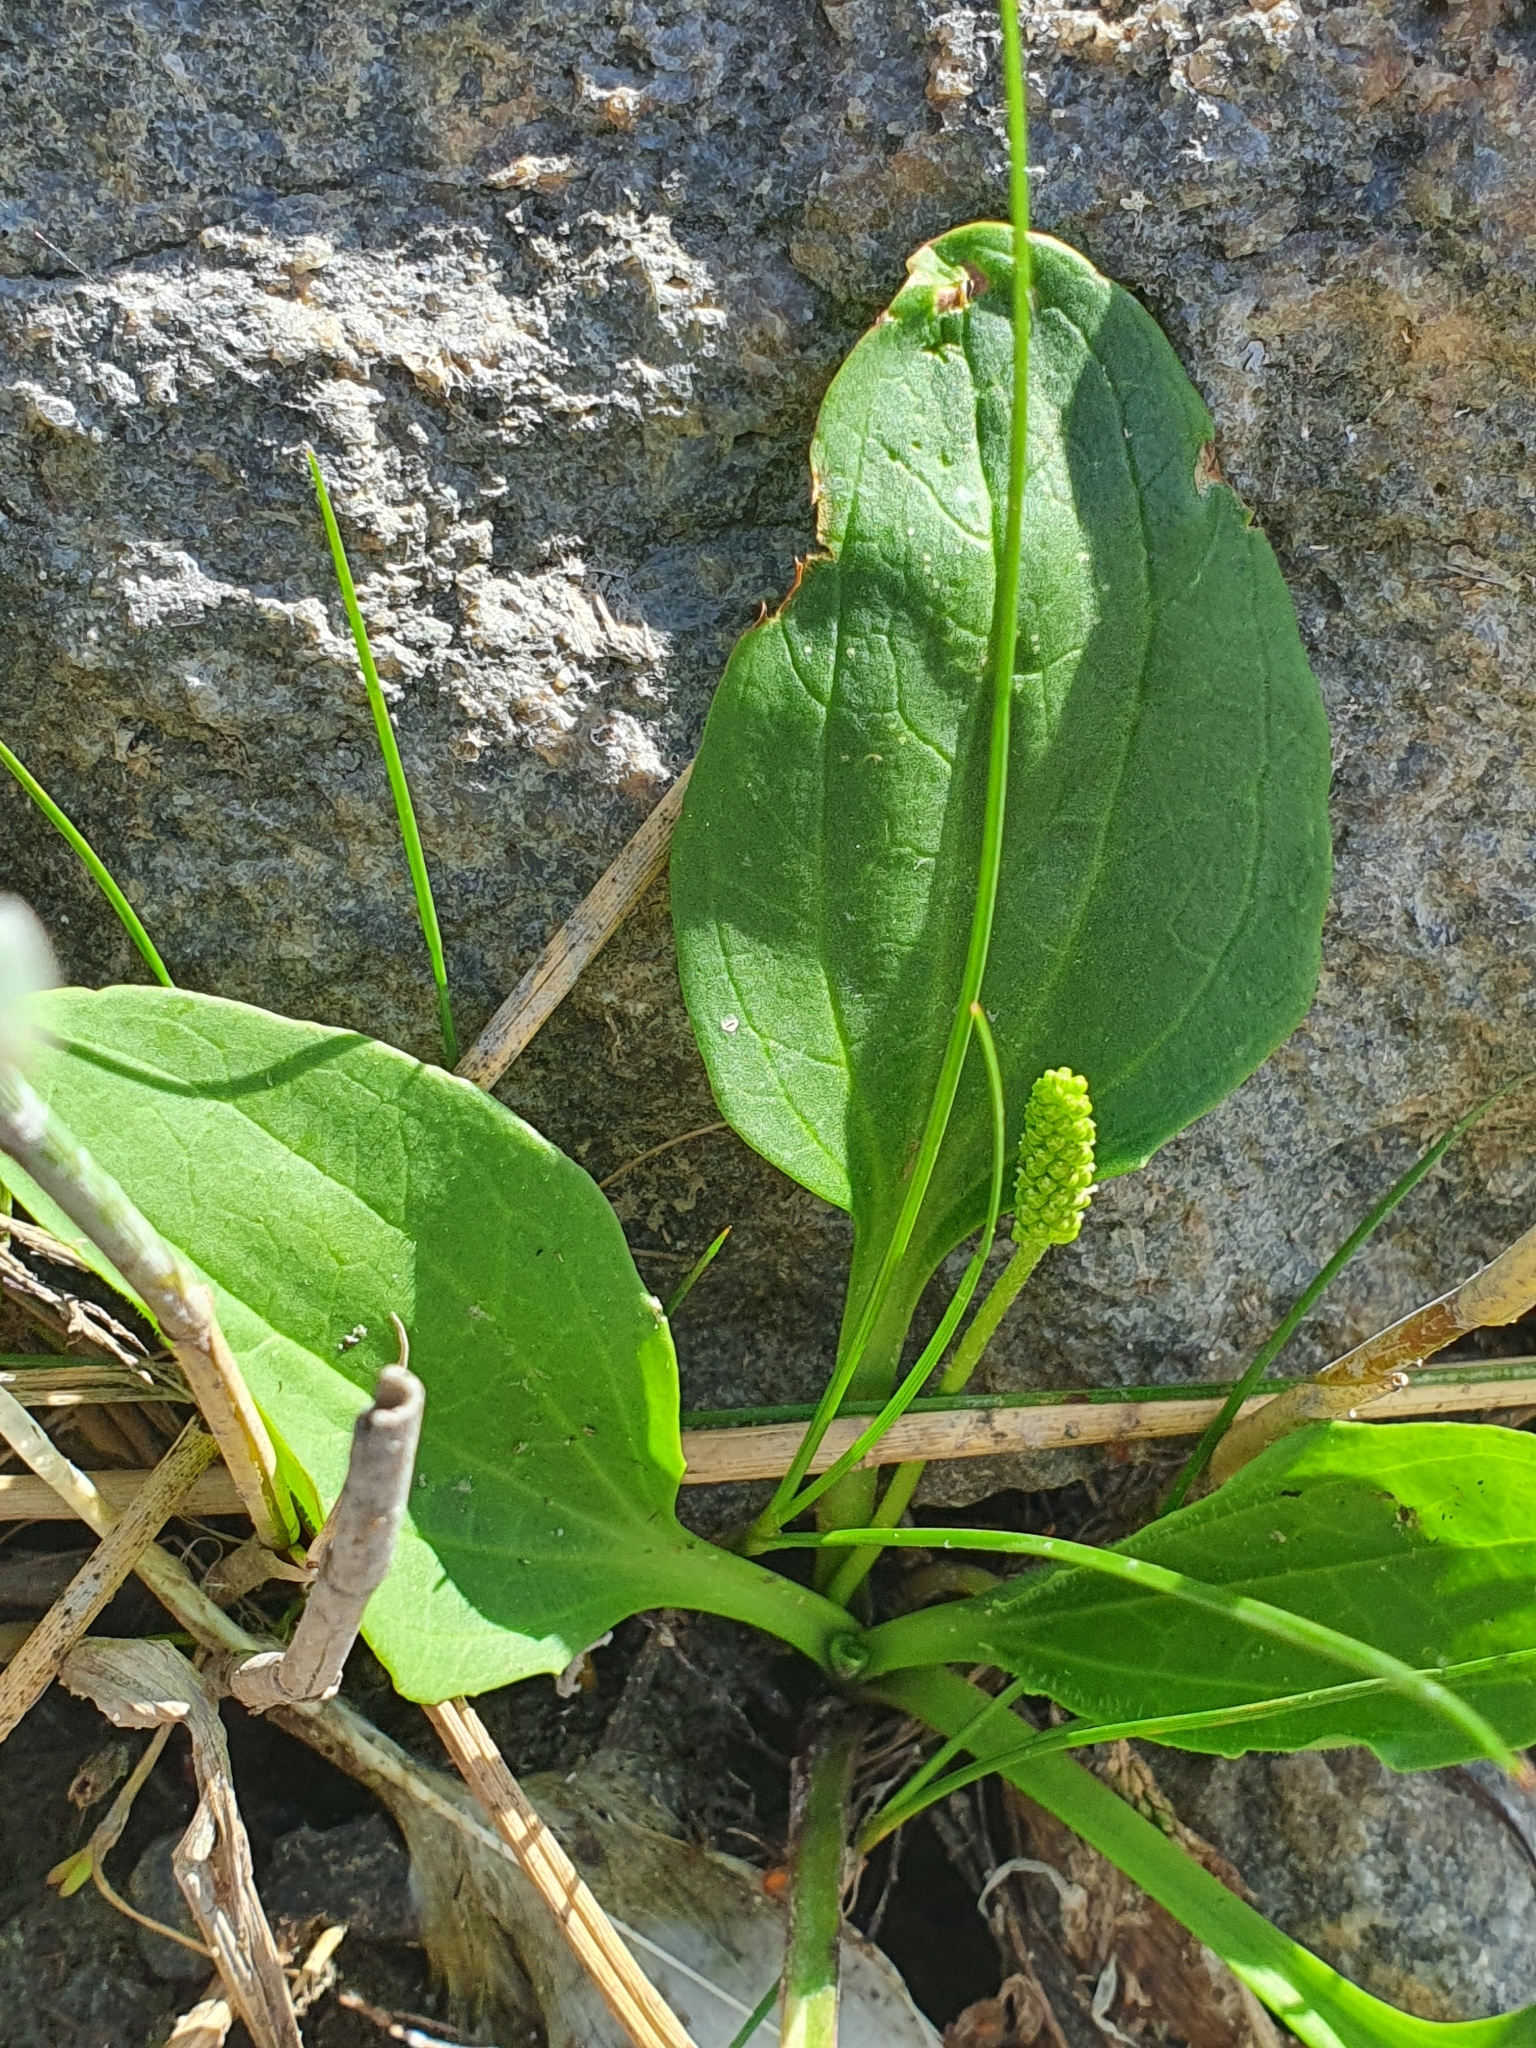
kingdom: Plantae
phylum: Tracheophyta
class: Magnoliopsida
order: Lamiales
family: Plantaginaceae
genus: Plantago
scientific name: Plantago major
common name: Common plantain
